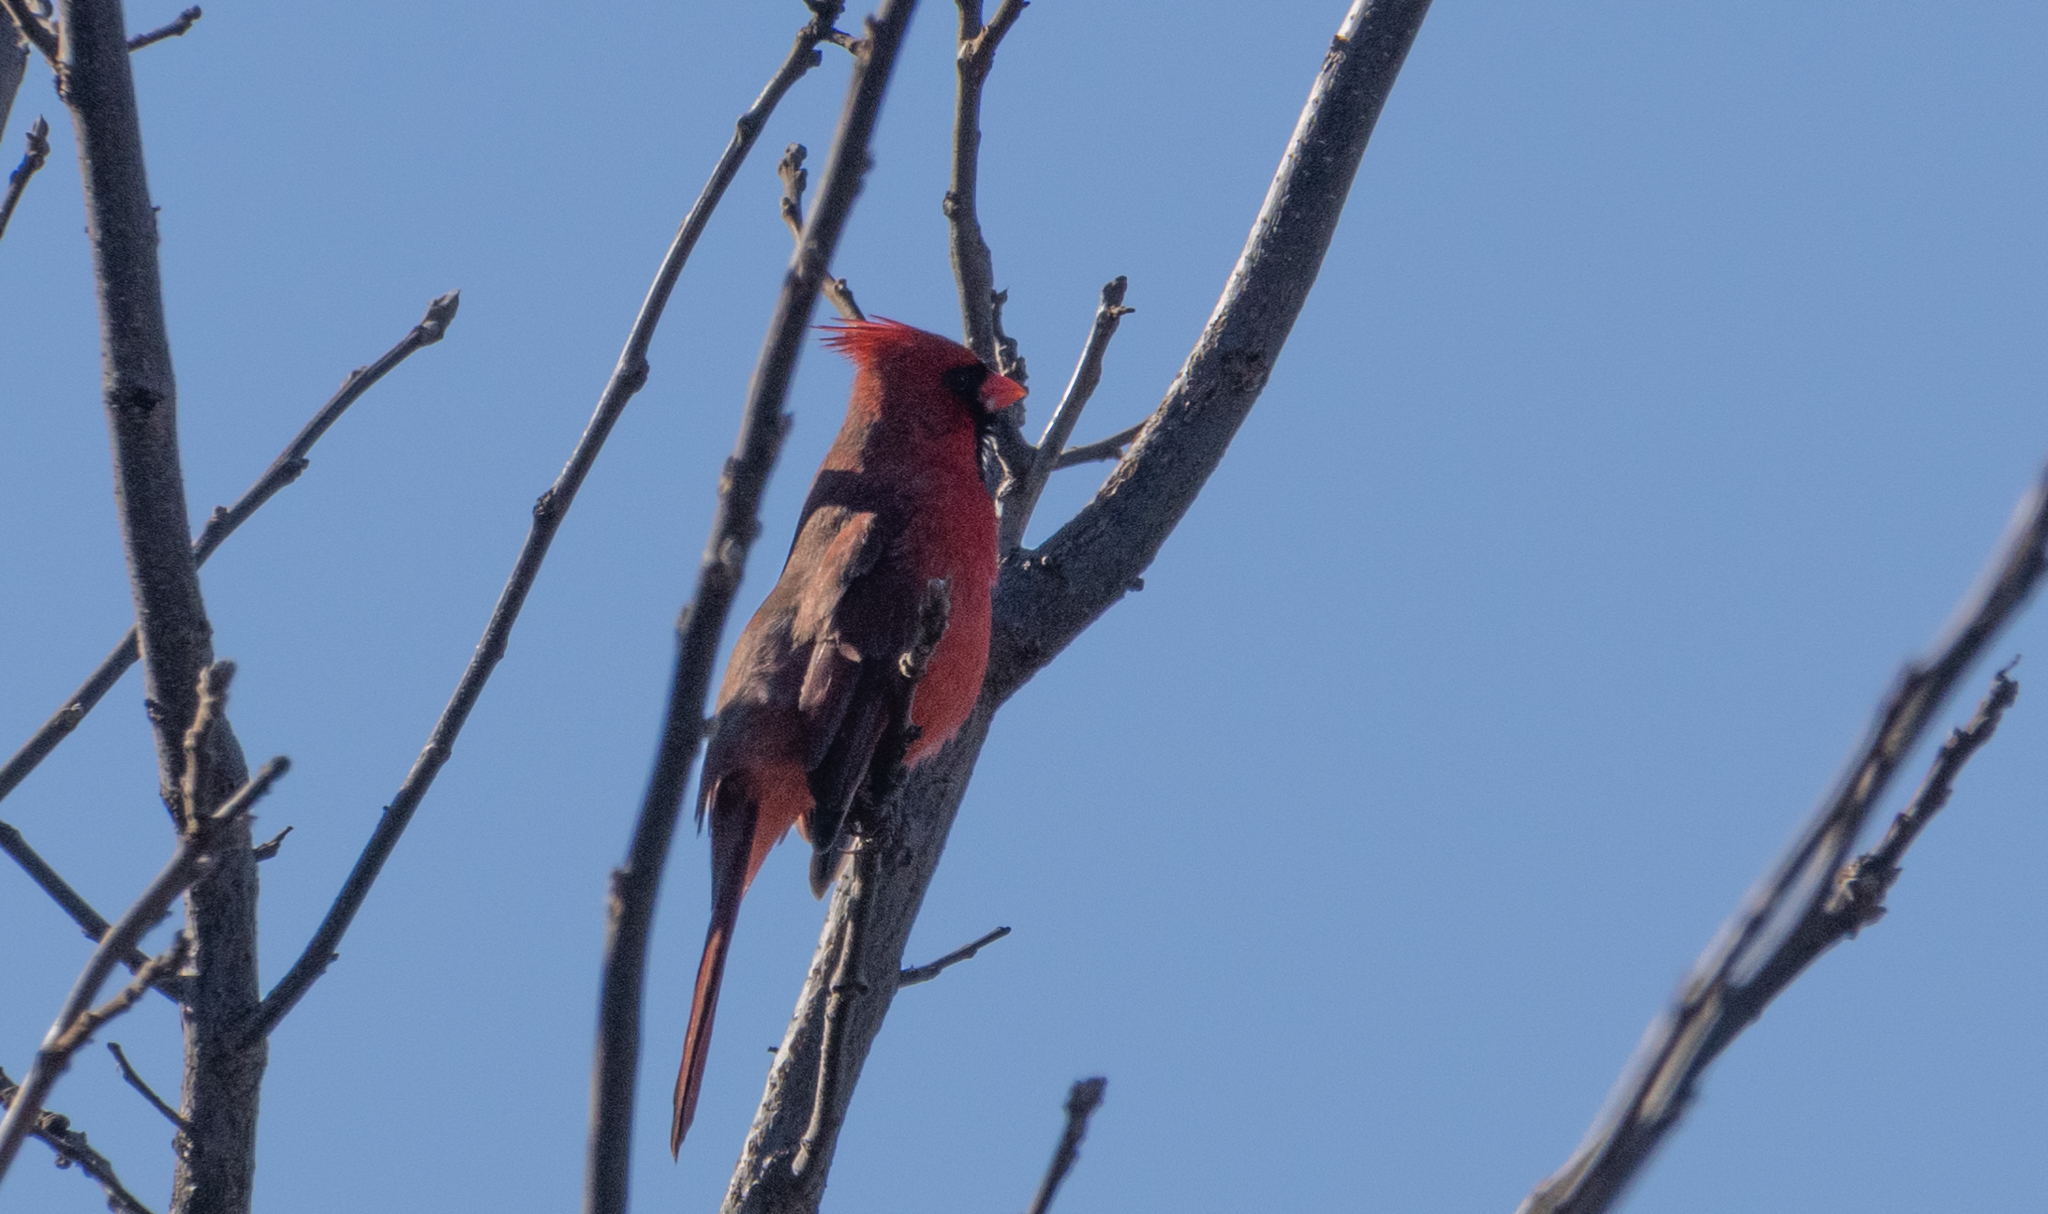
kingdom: Animalia
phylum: Chordata
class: Aves
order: Passeriformes
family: Cardinalidae
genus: Cardinalis
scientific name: Cardinalis cardinalis
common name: Northern cardinal
